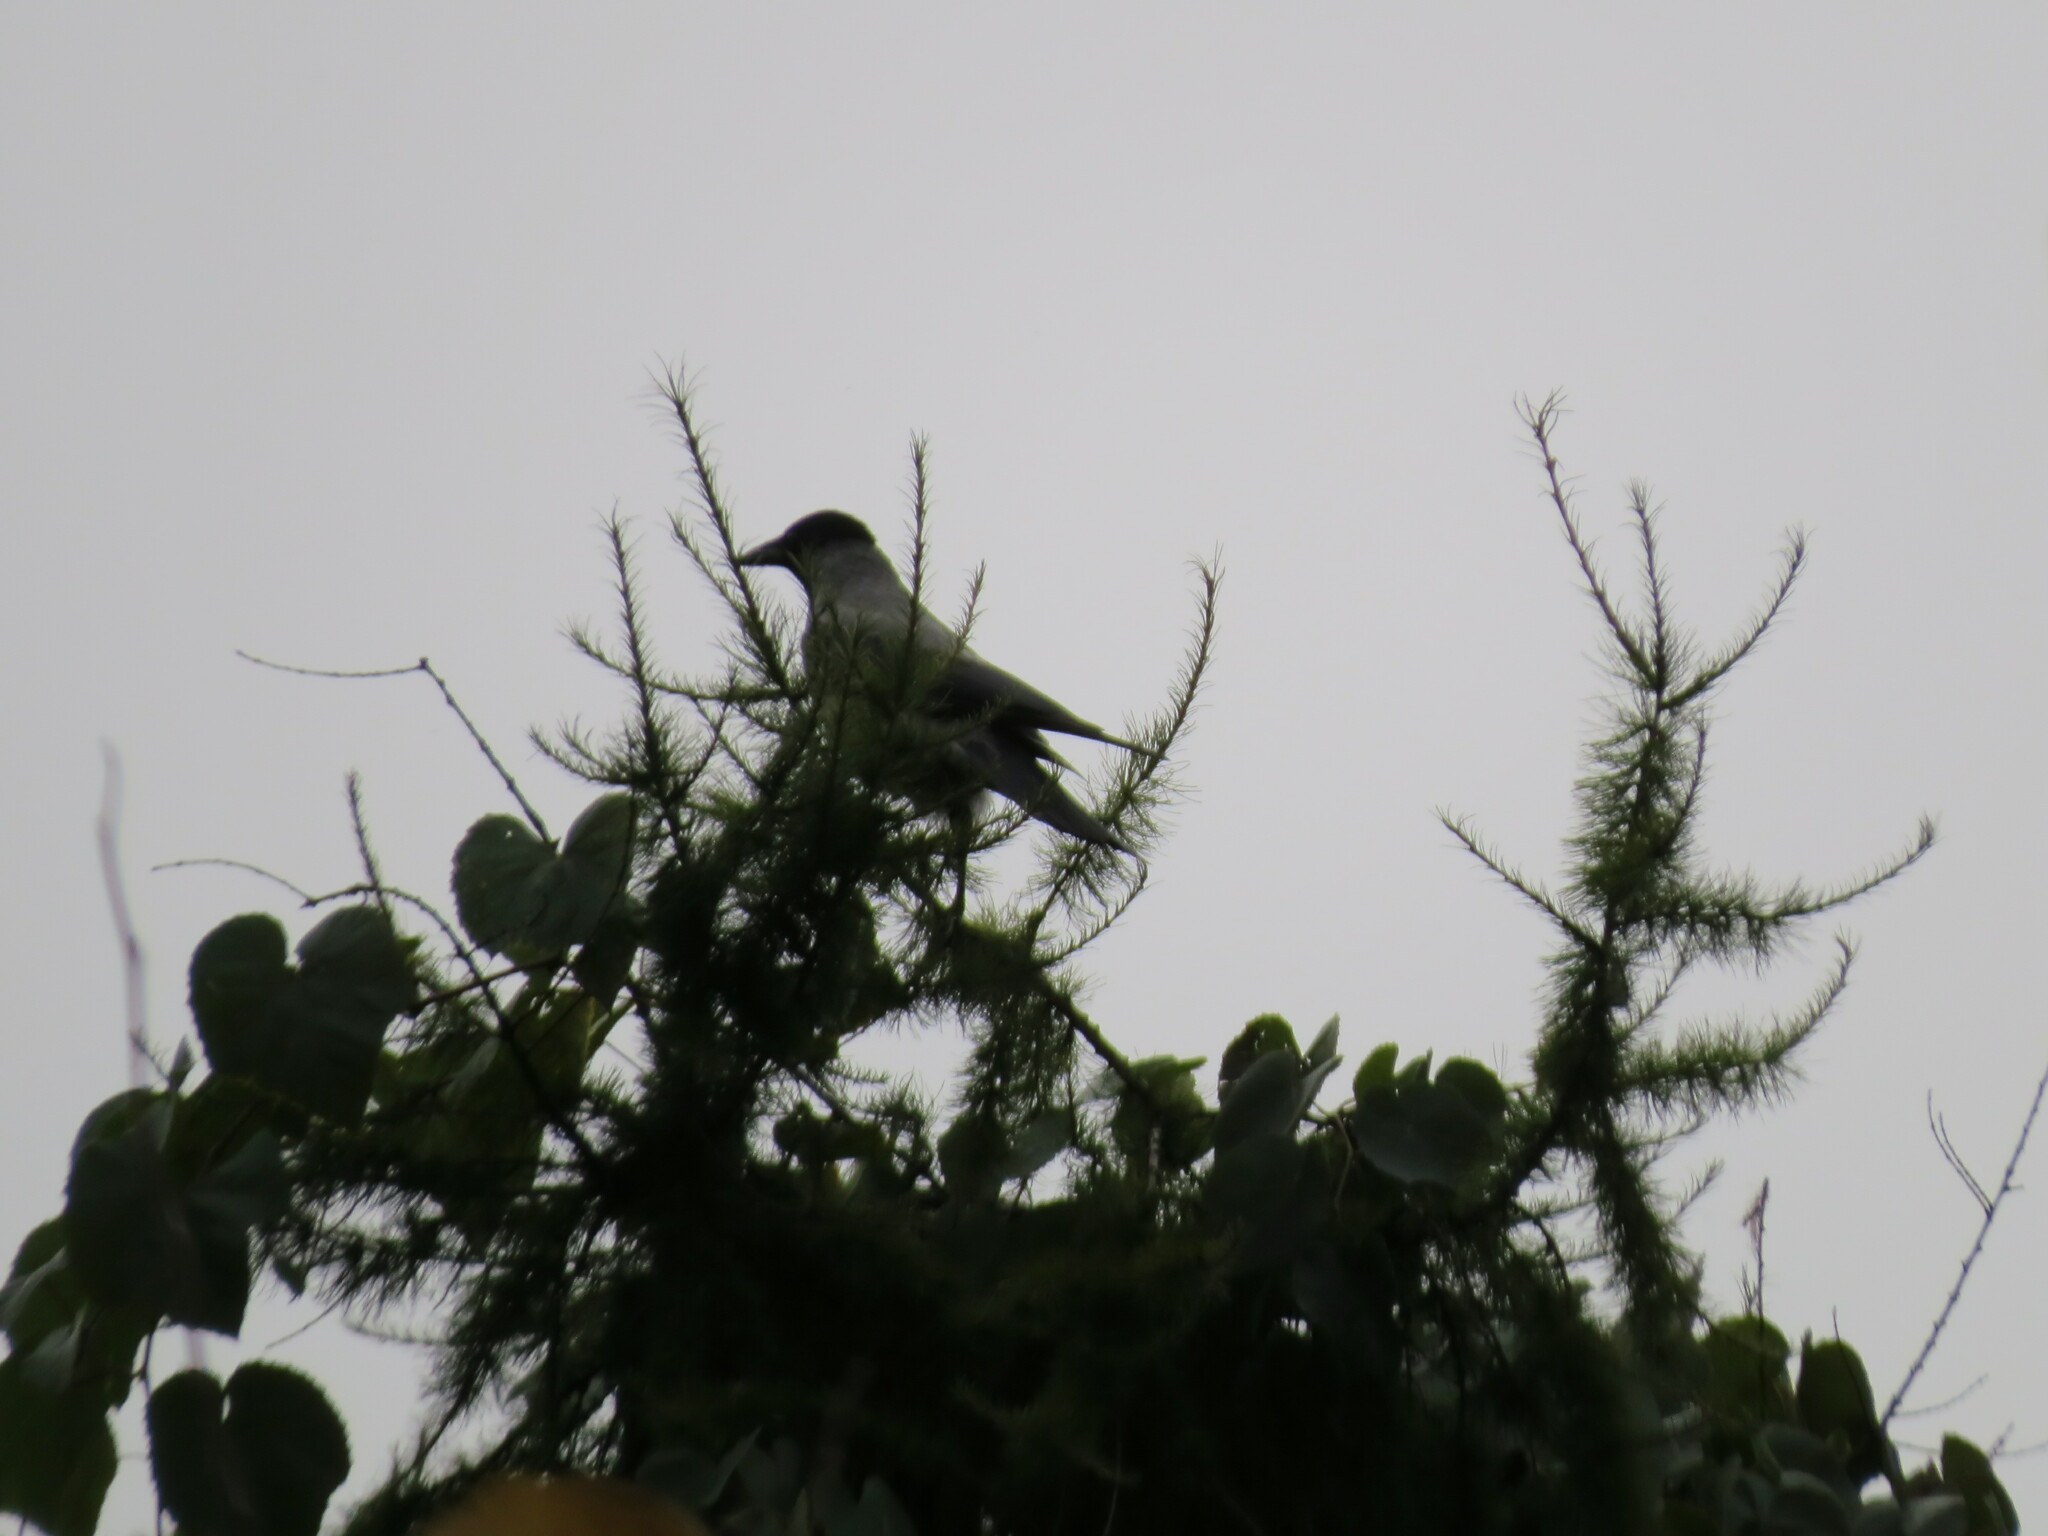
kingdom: Animalia
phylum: Chordata
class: Aves
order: Passeriformes
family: Corvidae
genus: Corvus
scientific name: Corvus cornix
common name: Hooded crow
